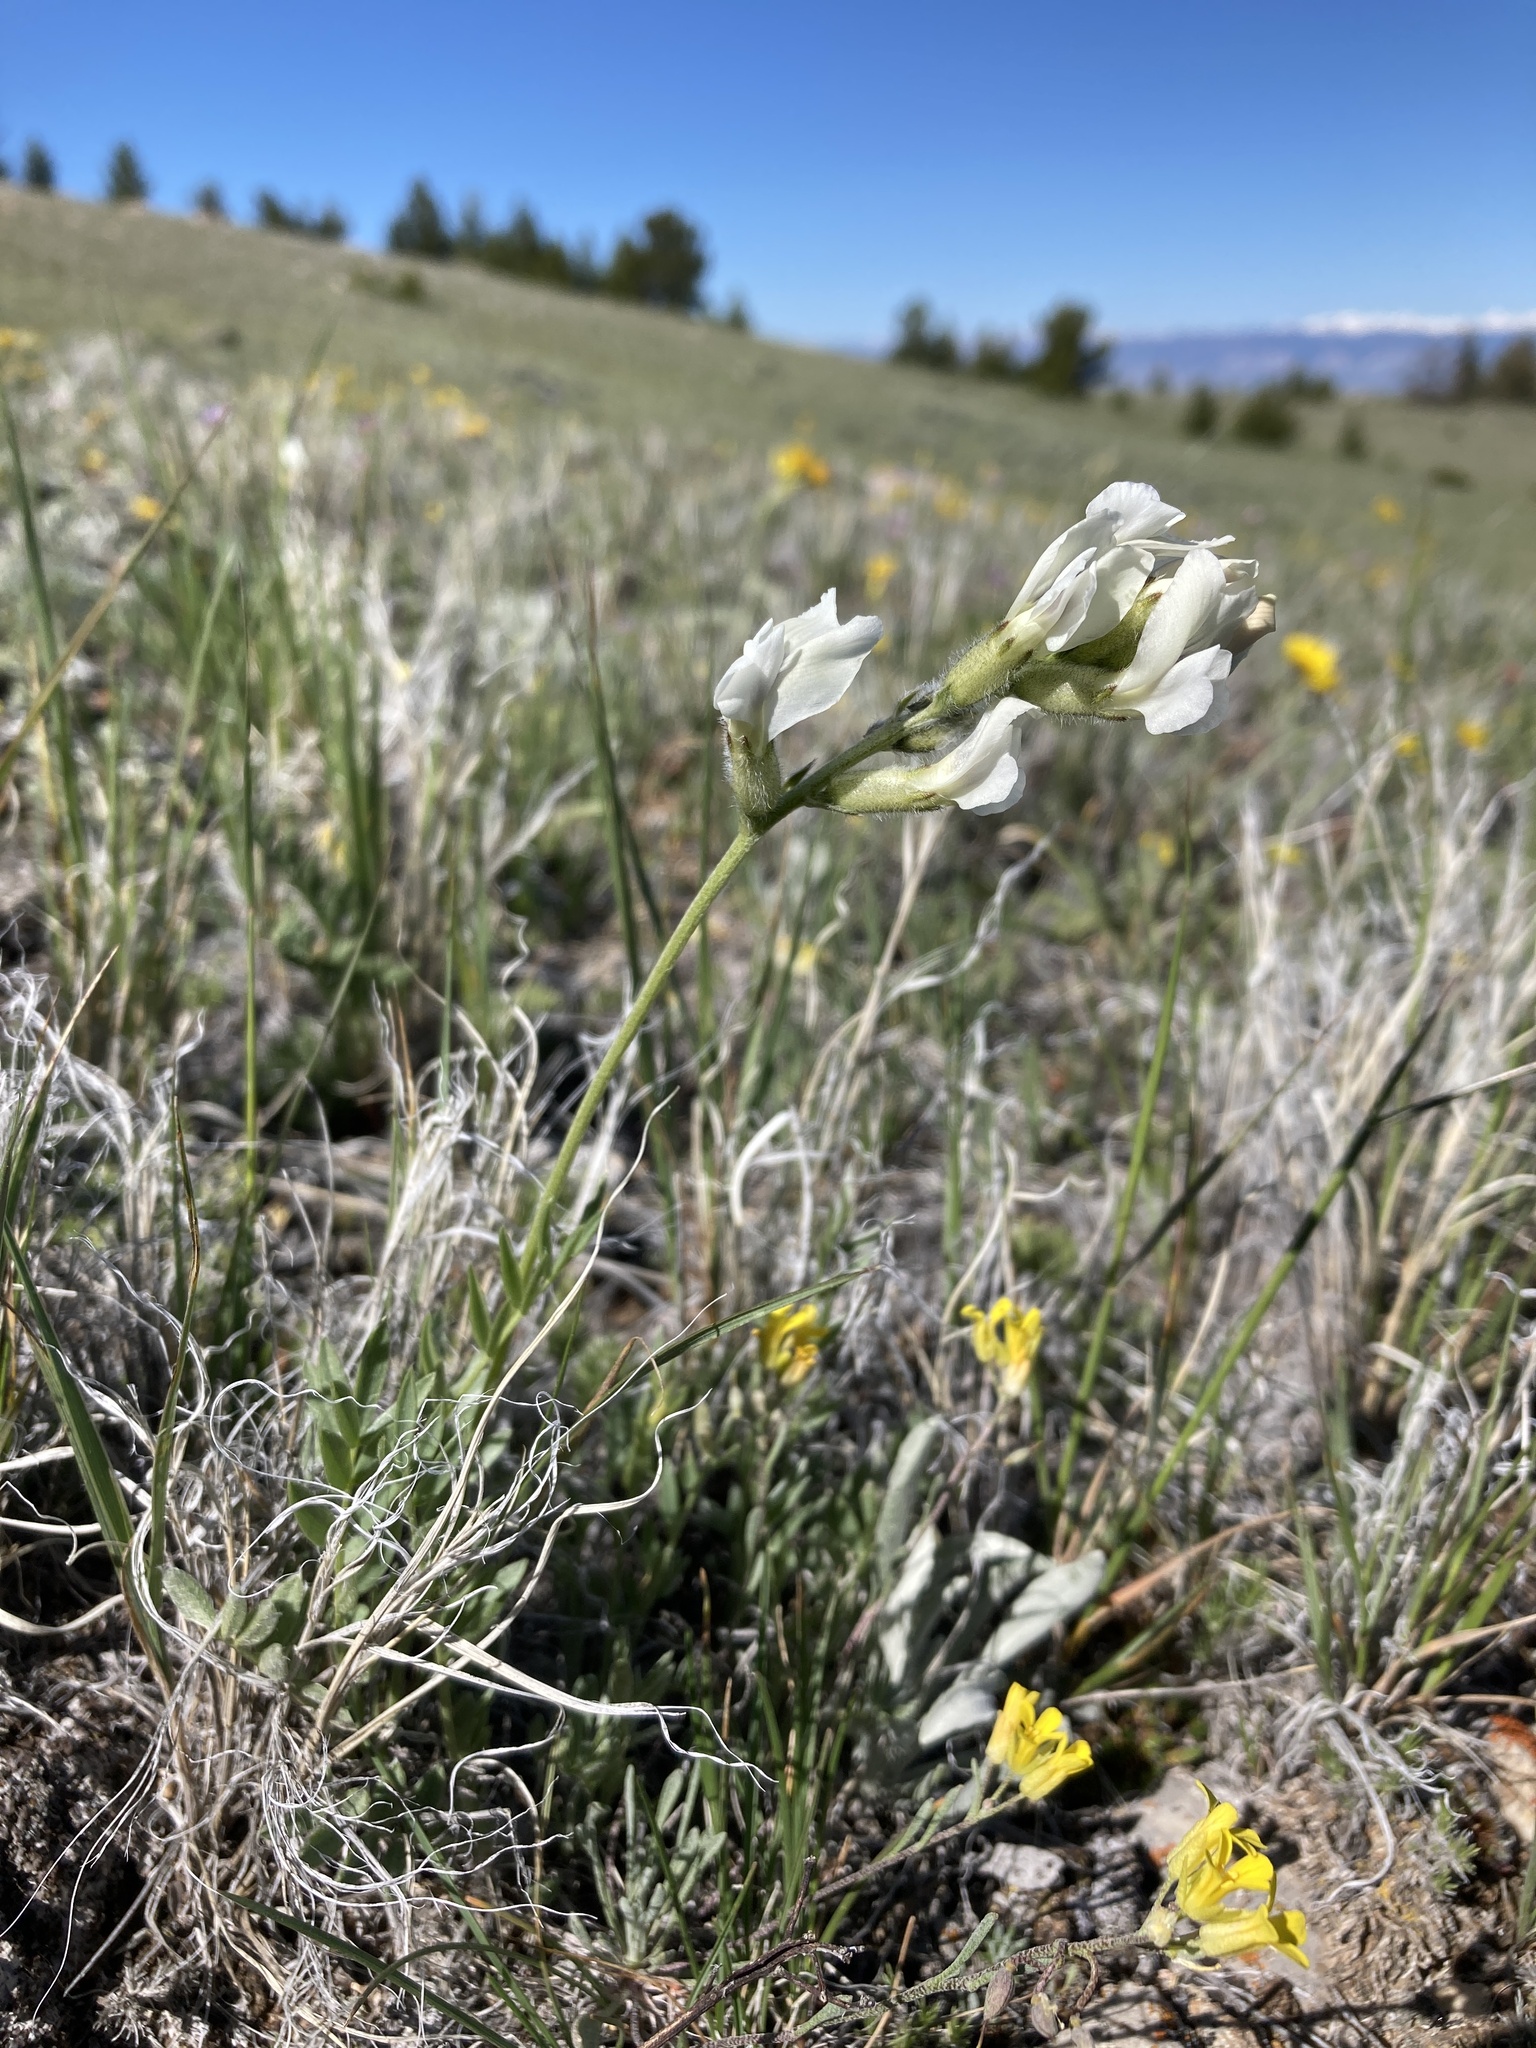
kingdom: Plantae
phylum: Tracheophyta
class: Magnoliopsida
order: Fabales
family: Fabaceae
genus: Oxytropis
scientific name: Oxytropis sericea
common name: Silky locoweed
